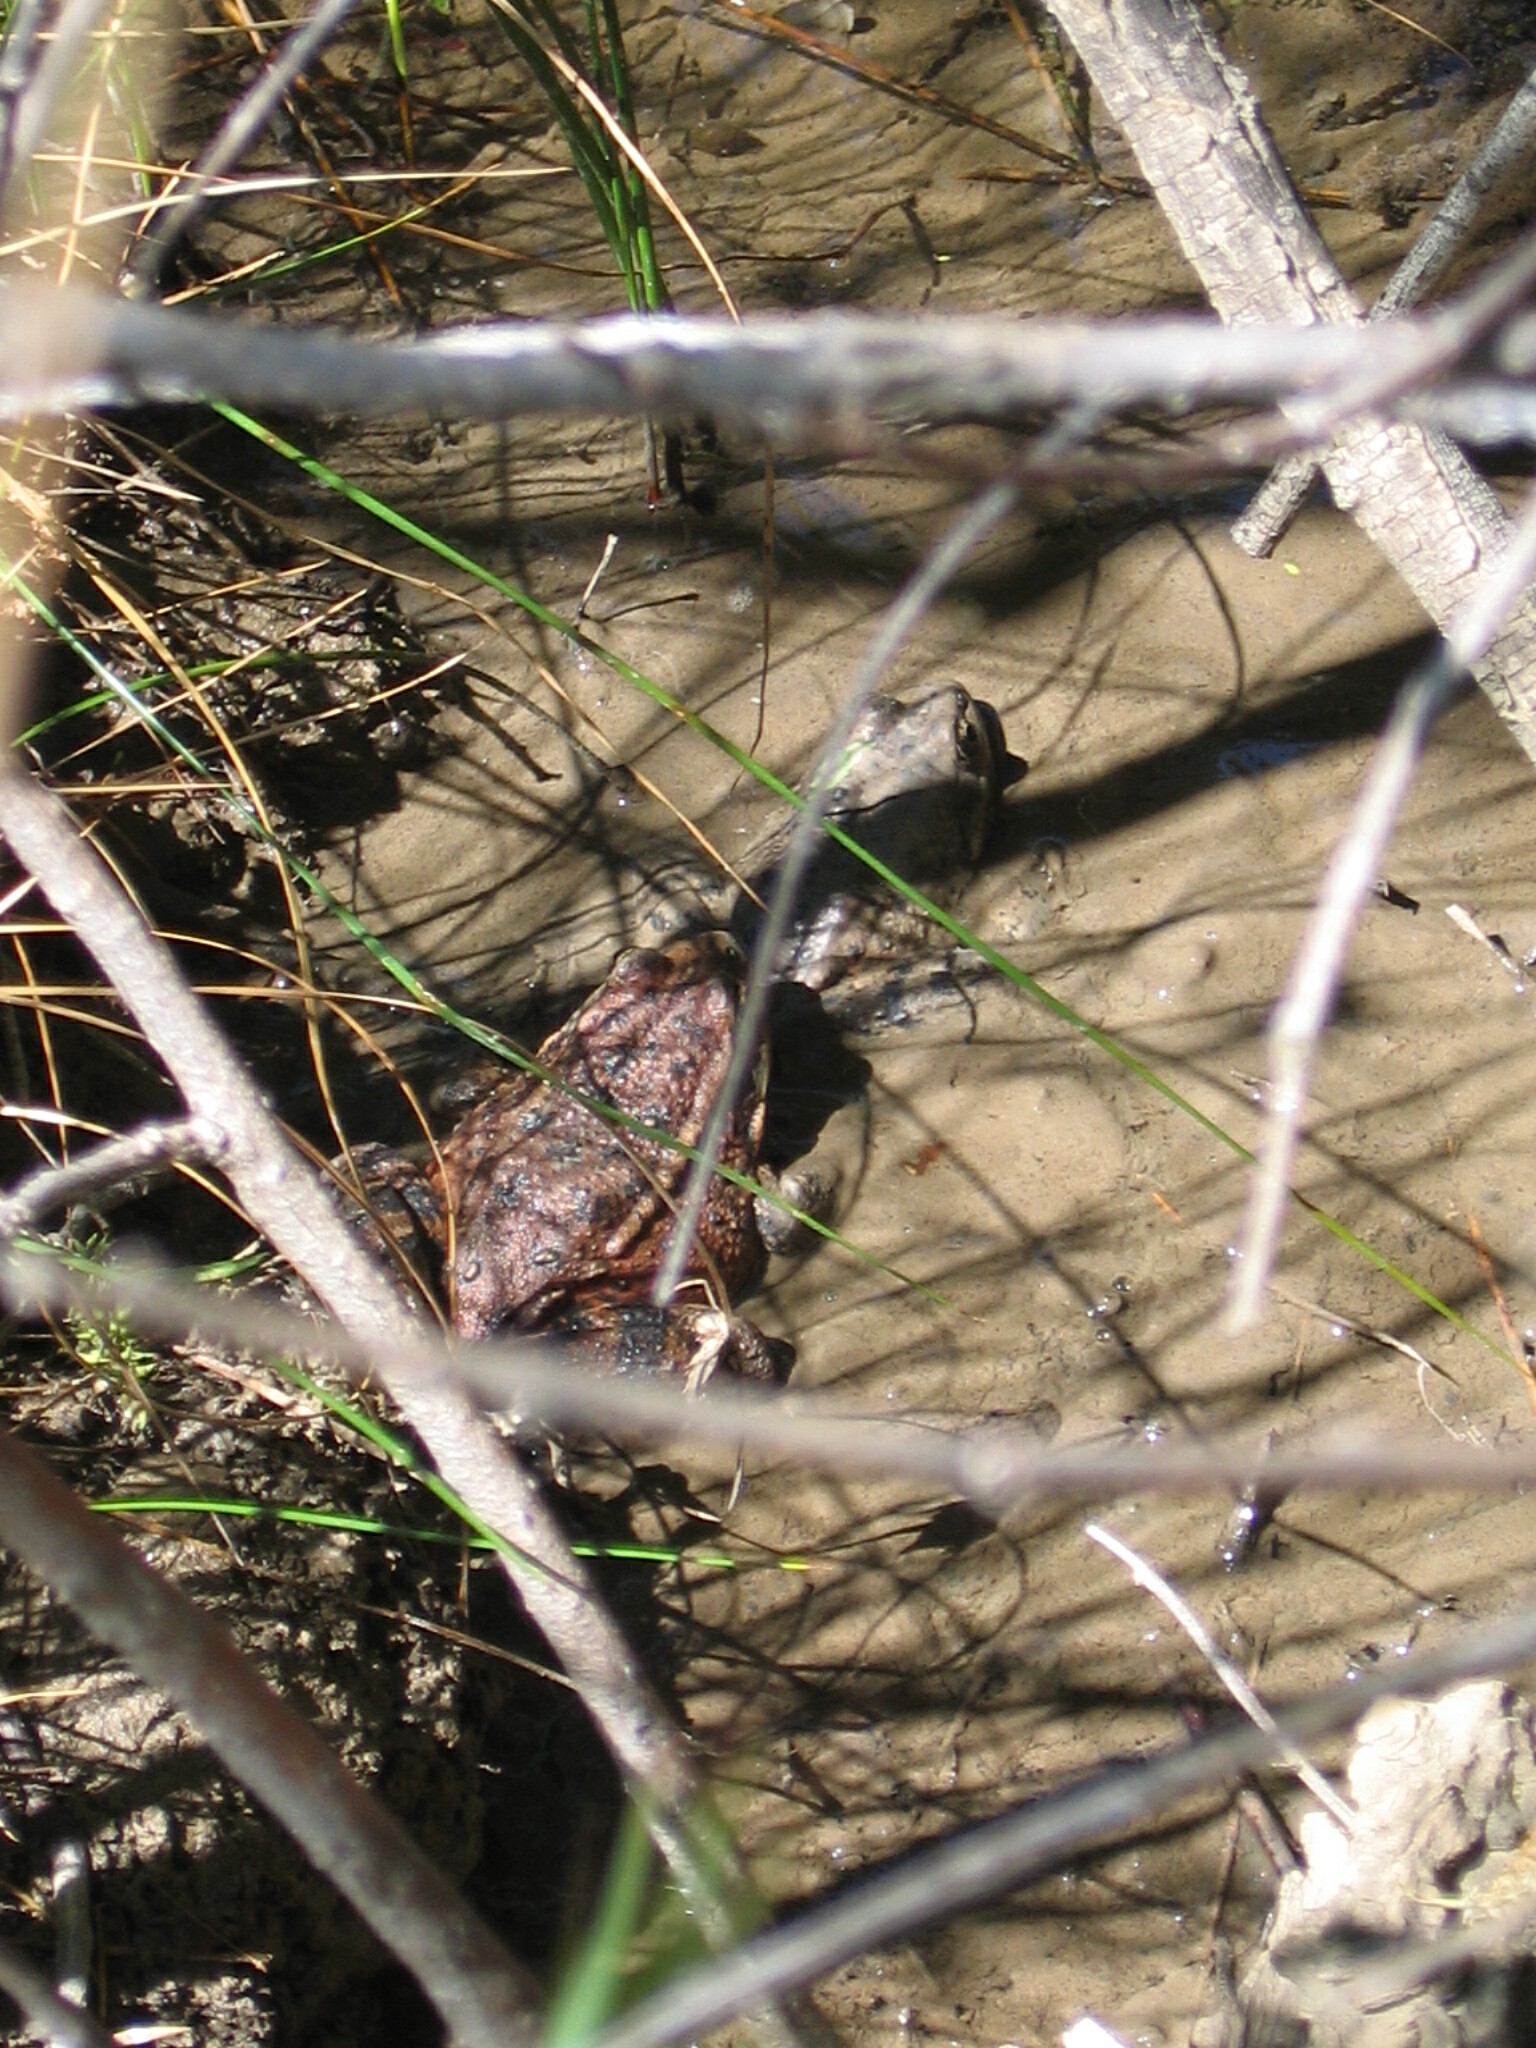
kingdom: Animalia
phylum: Chordata
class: Amphibia
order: Anura
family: Ranidae
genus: Rana
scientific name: Rana draytonii
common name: California red-legged frog
